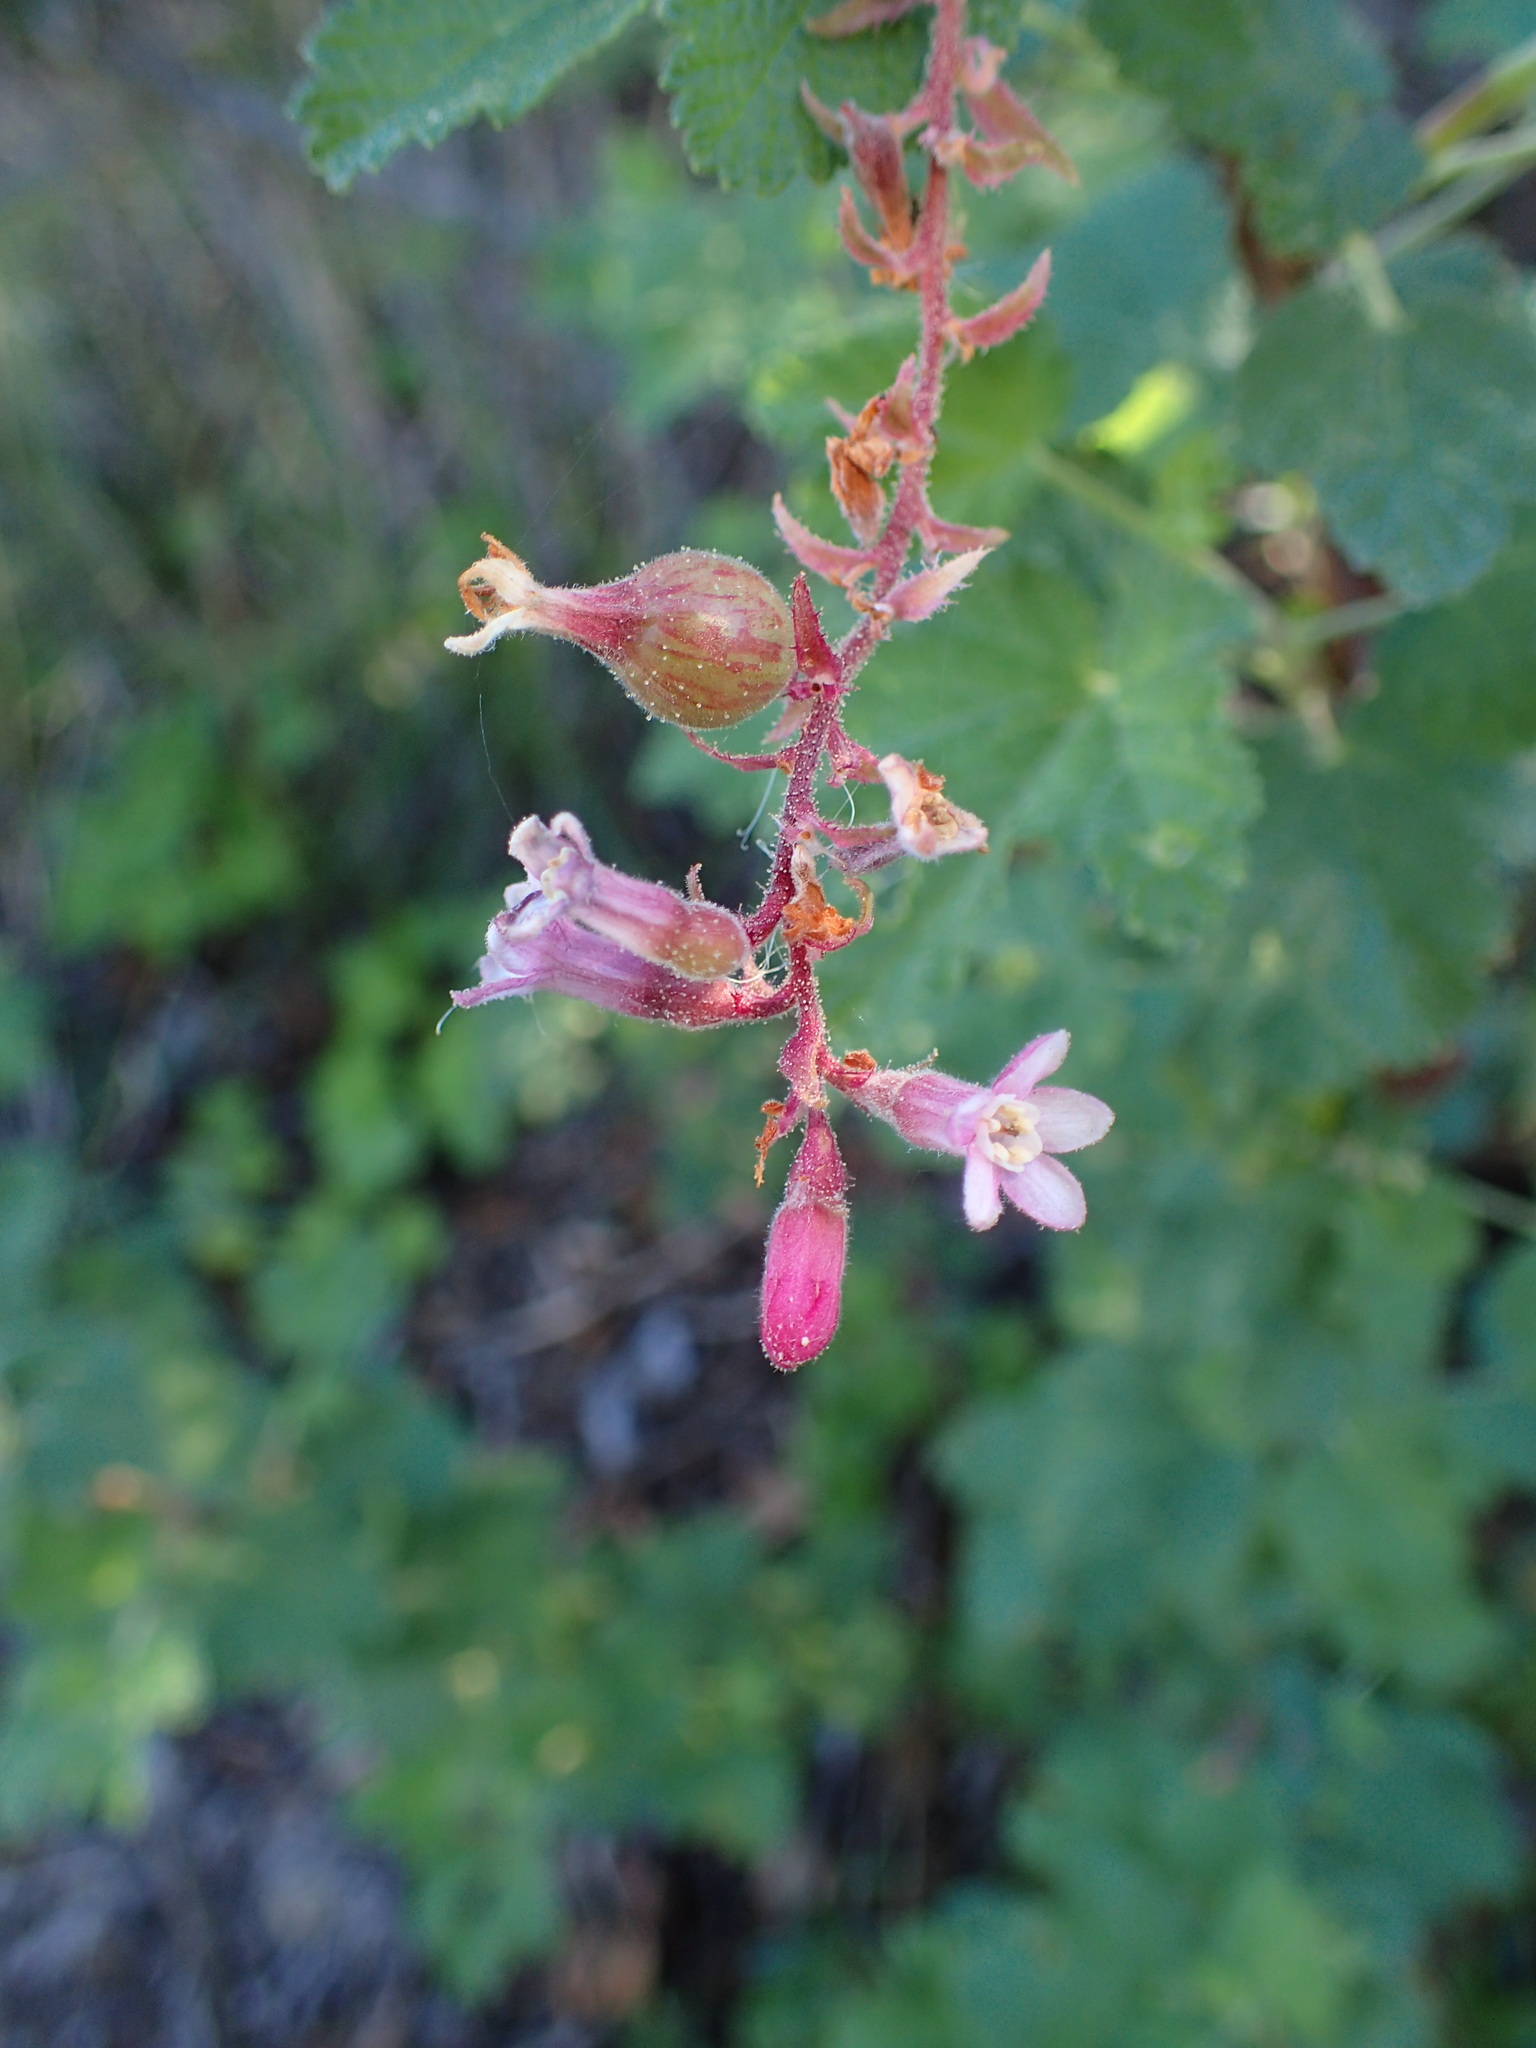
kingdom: Plantae
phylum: Tracheophyta
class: Magnoliopsida
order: Saxifragales
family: Grossulariaceae
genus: Ribes
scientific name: Ribes malvaceum
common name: Chaparral currant
